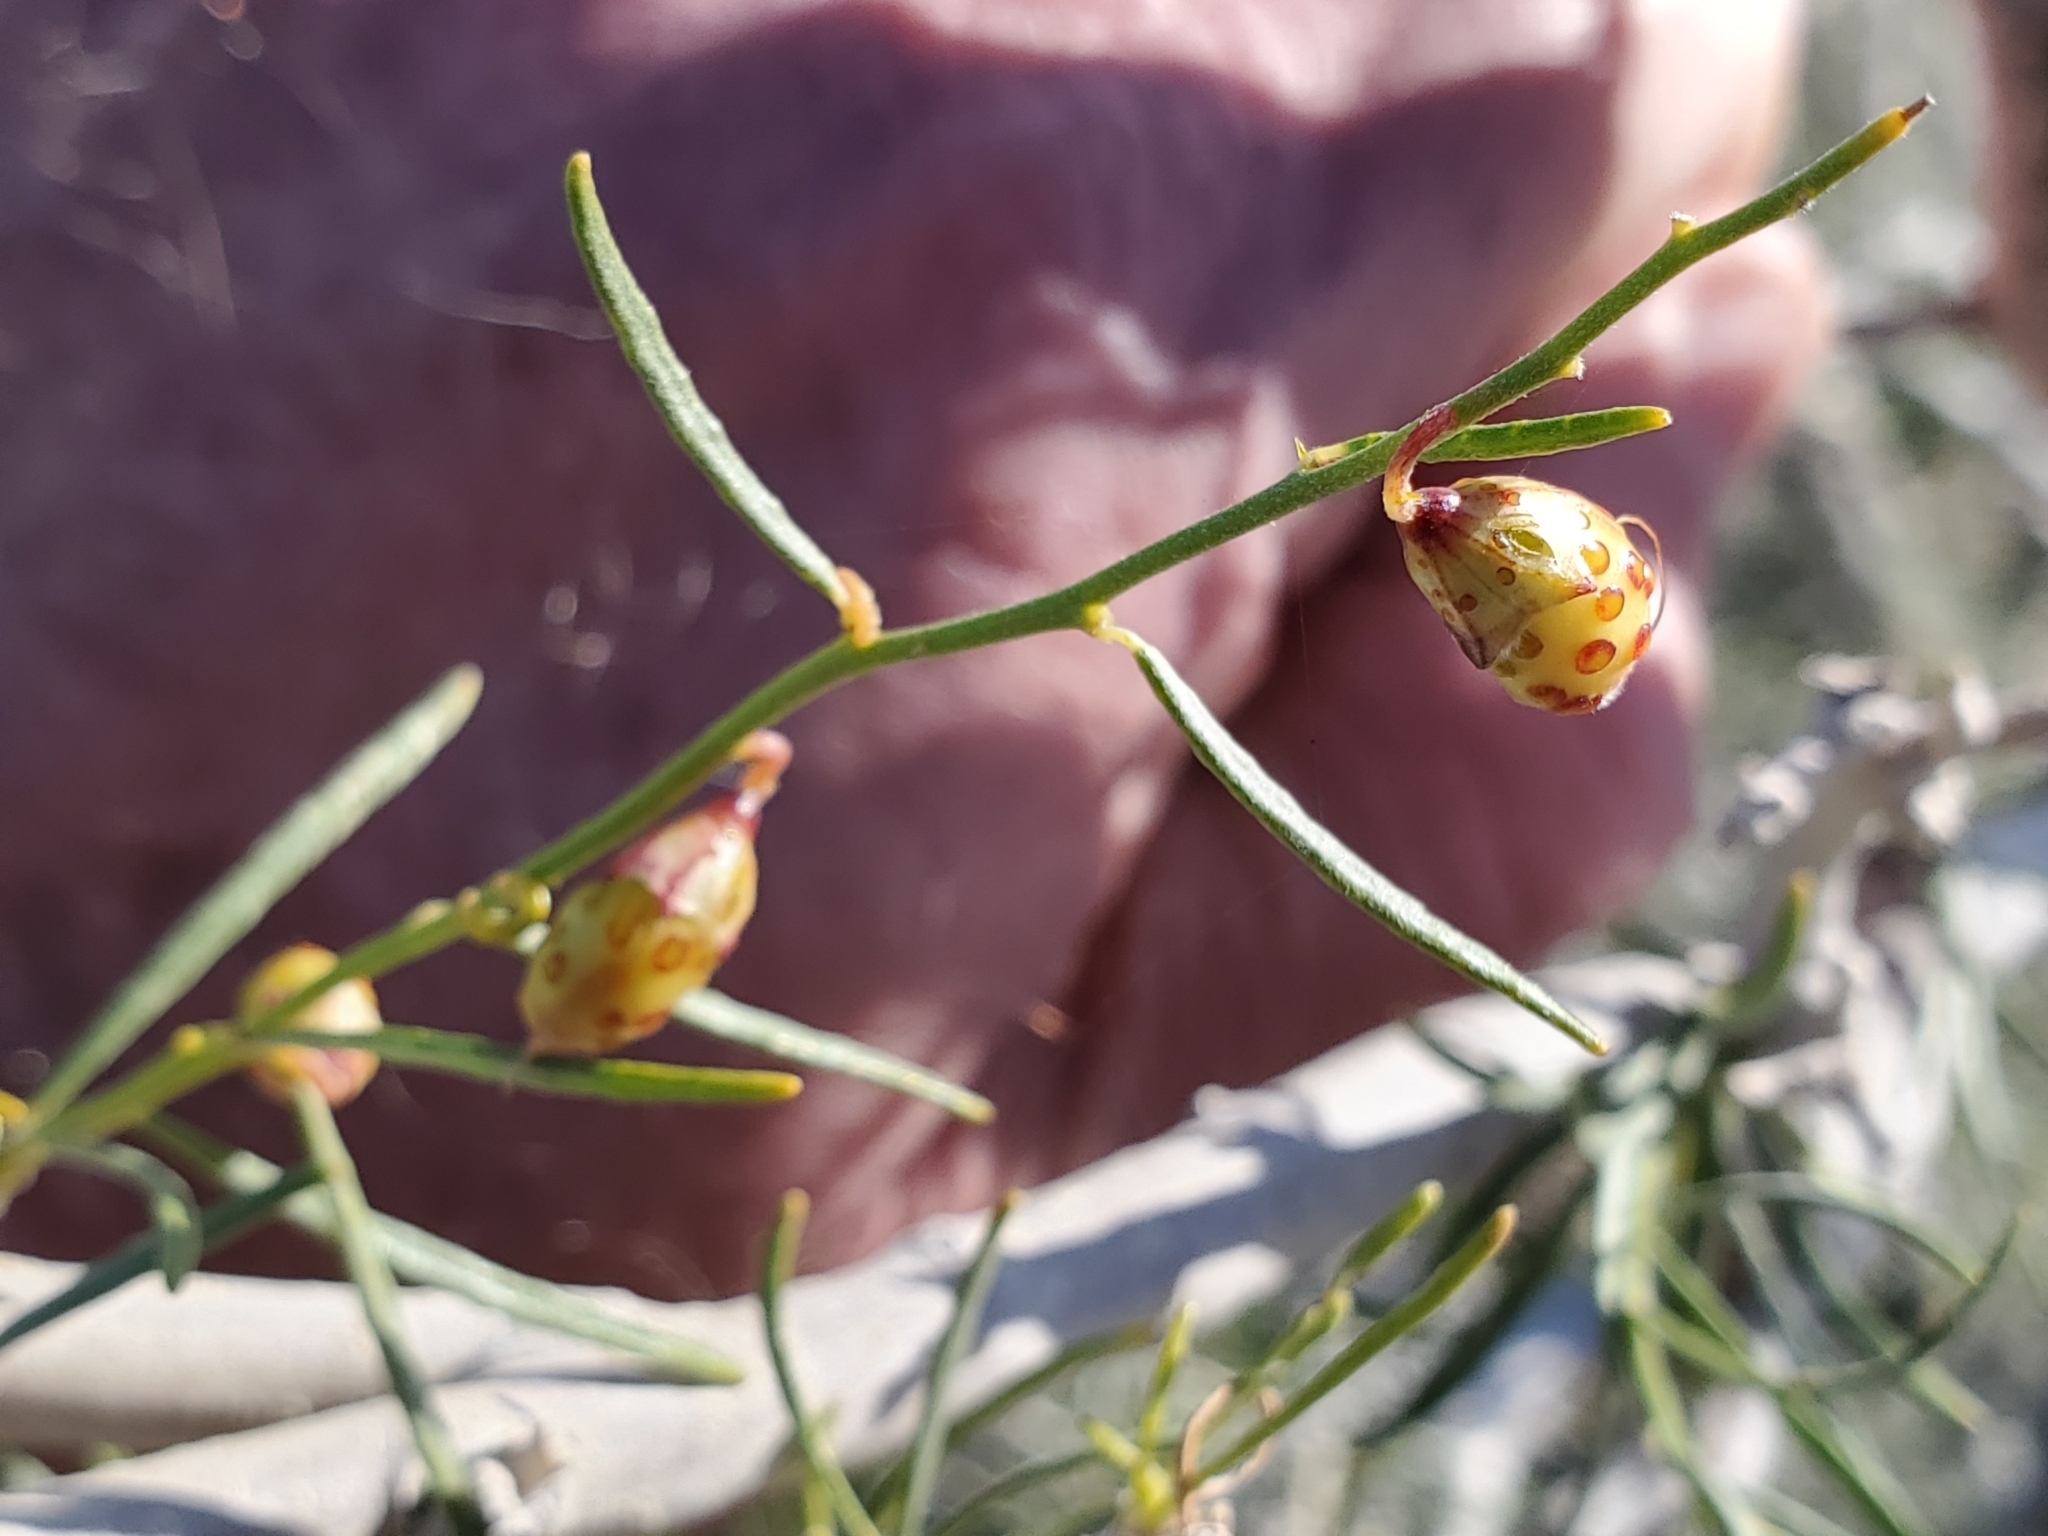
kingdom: Plantae
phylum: Tracheophyta
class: Magnoliopsida
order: Fabales
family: Fabaceae
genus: Psorothamnus
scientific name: Psorothamnus schottii
